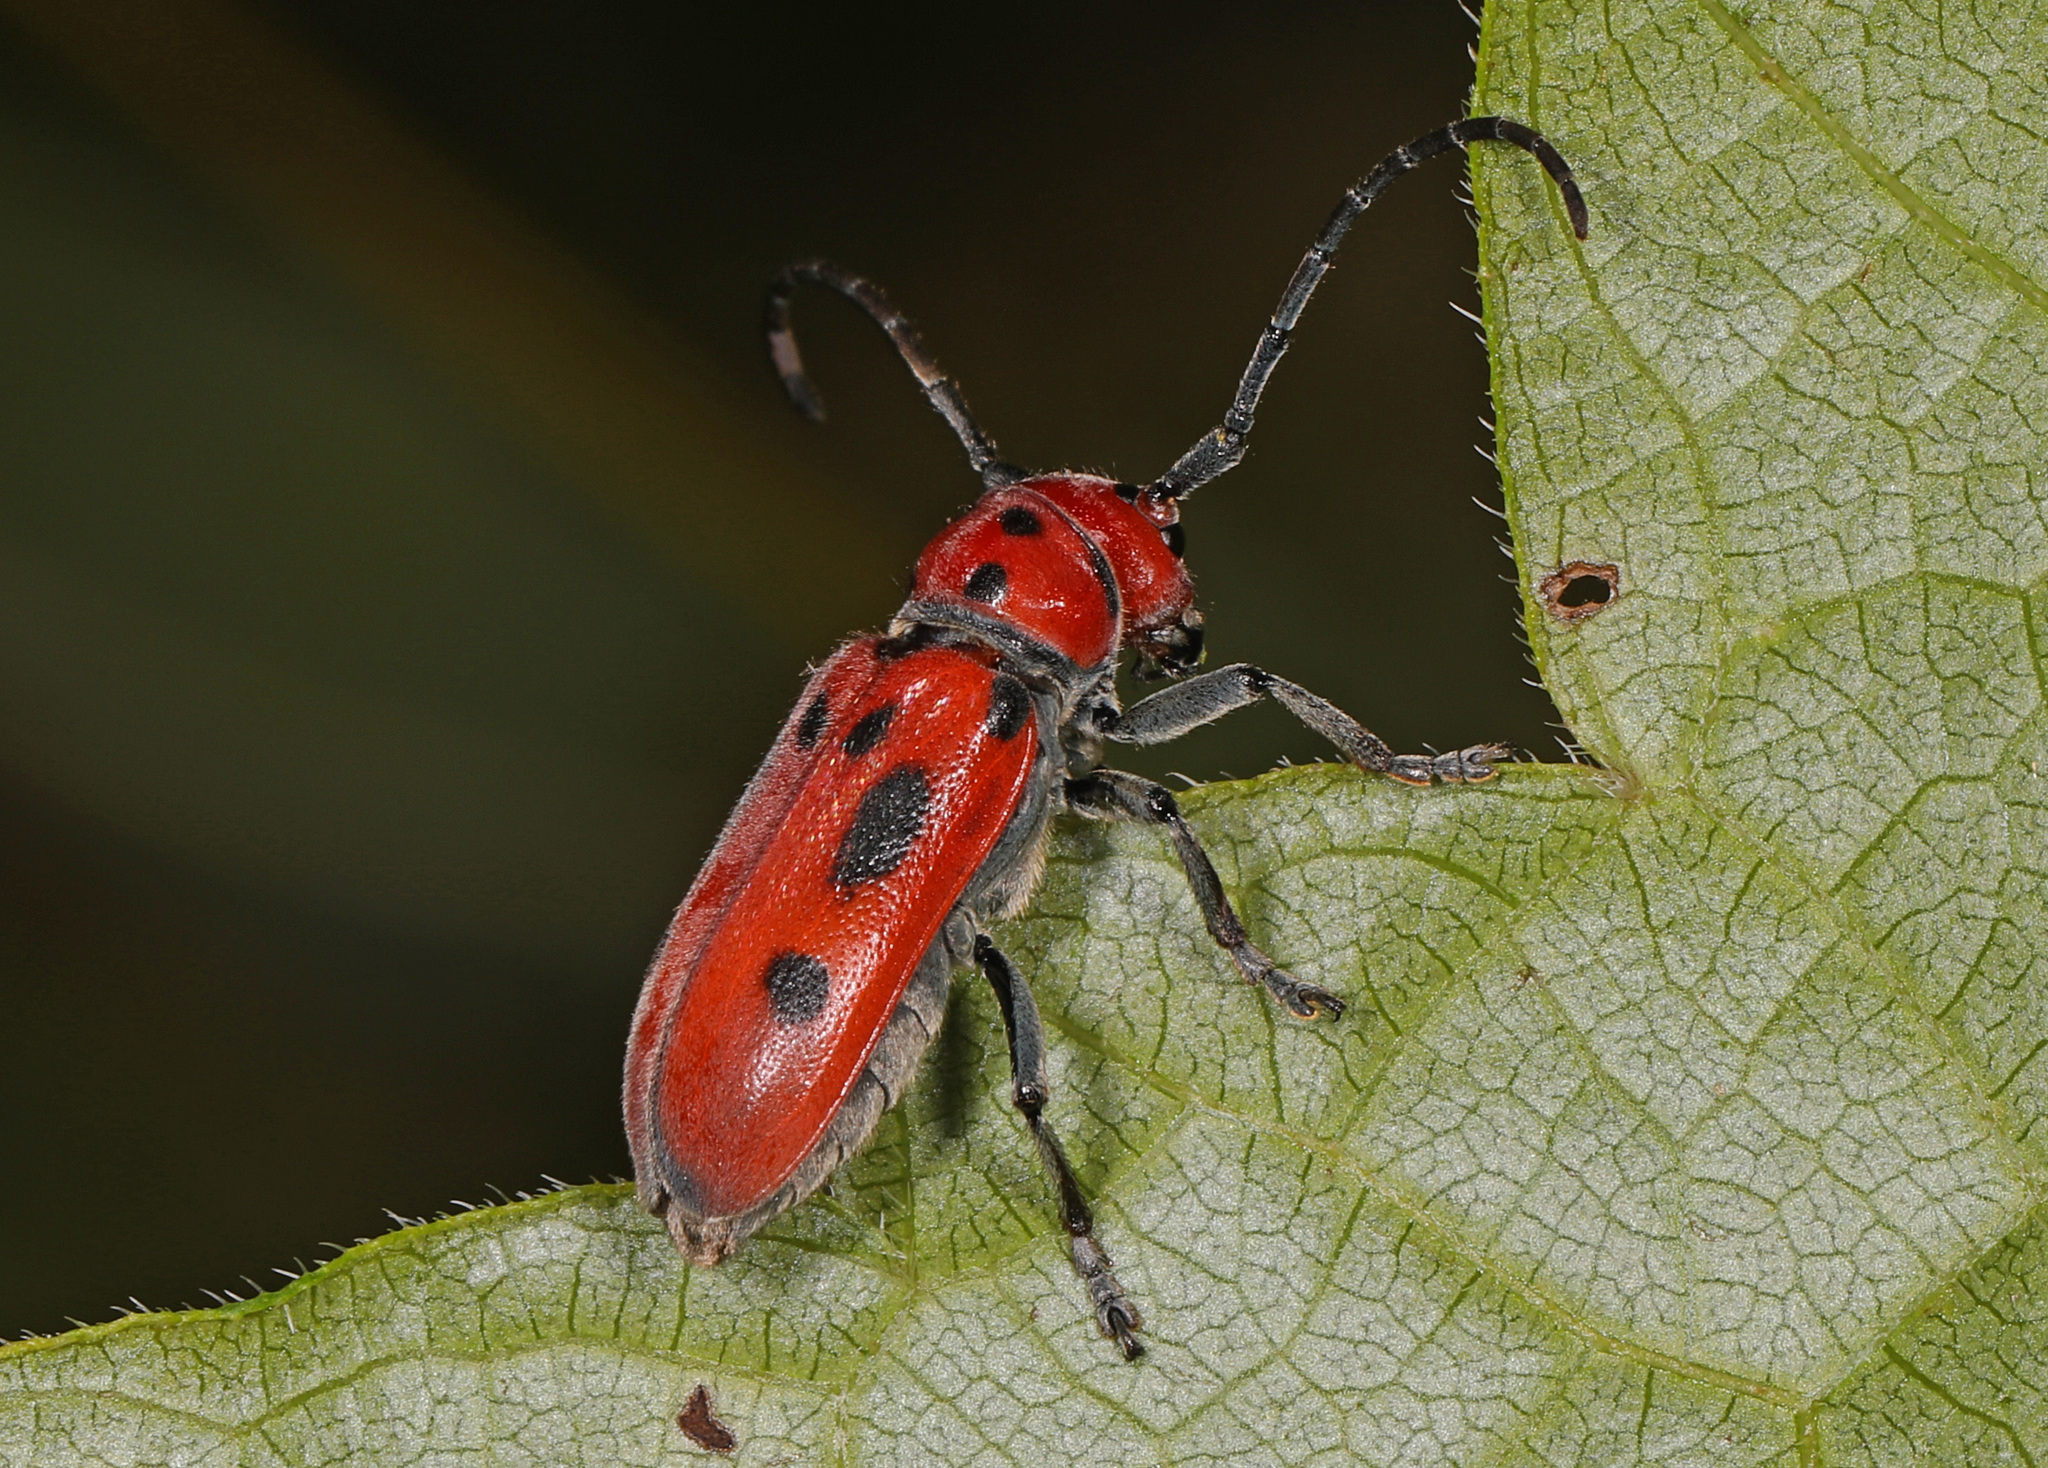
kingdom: Animalia
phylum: Arthropoda
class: Insecta
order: Coleoptera
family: Cerambycidae
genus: Tetraopes
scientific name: Tetraopes tetrophthalmus
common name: Red milkweed beetle
